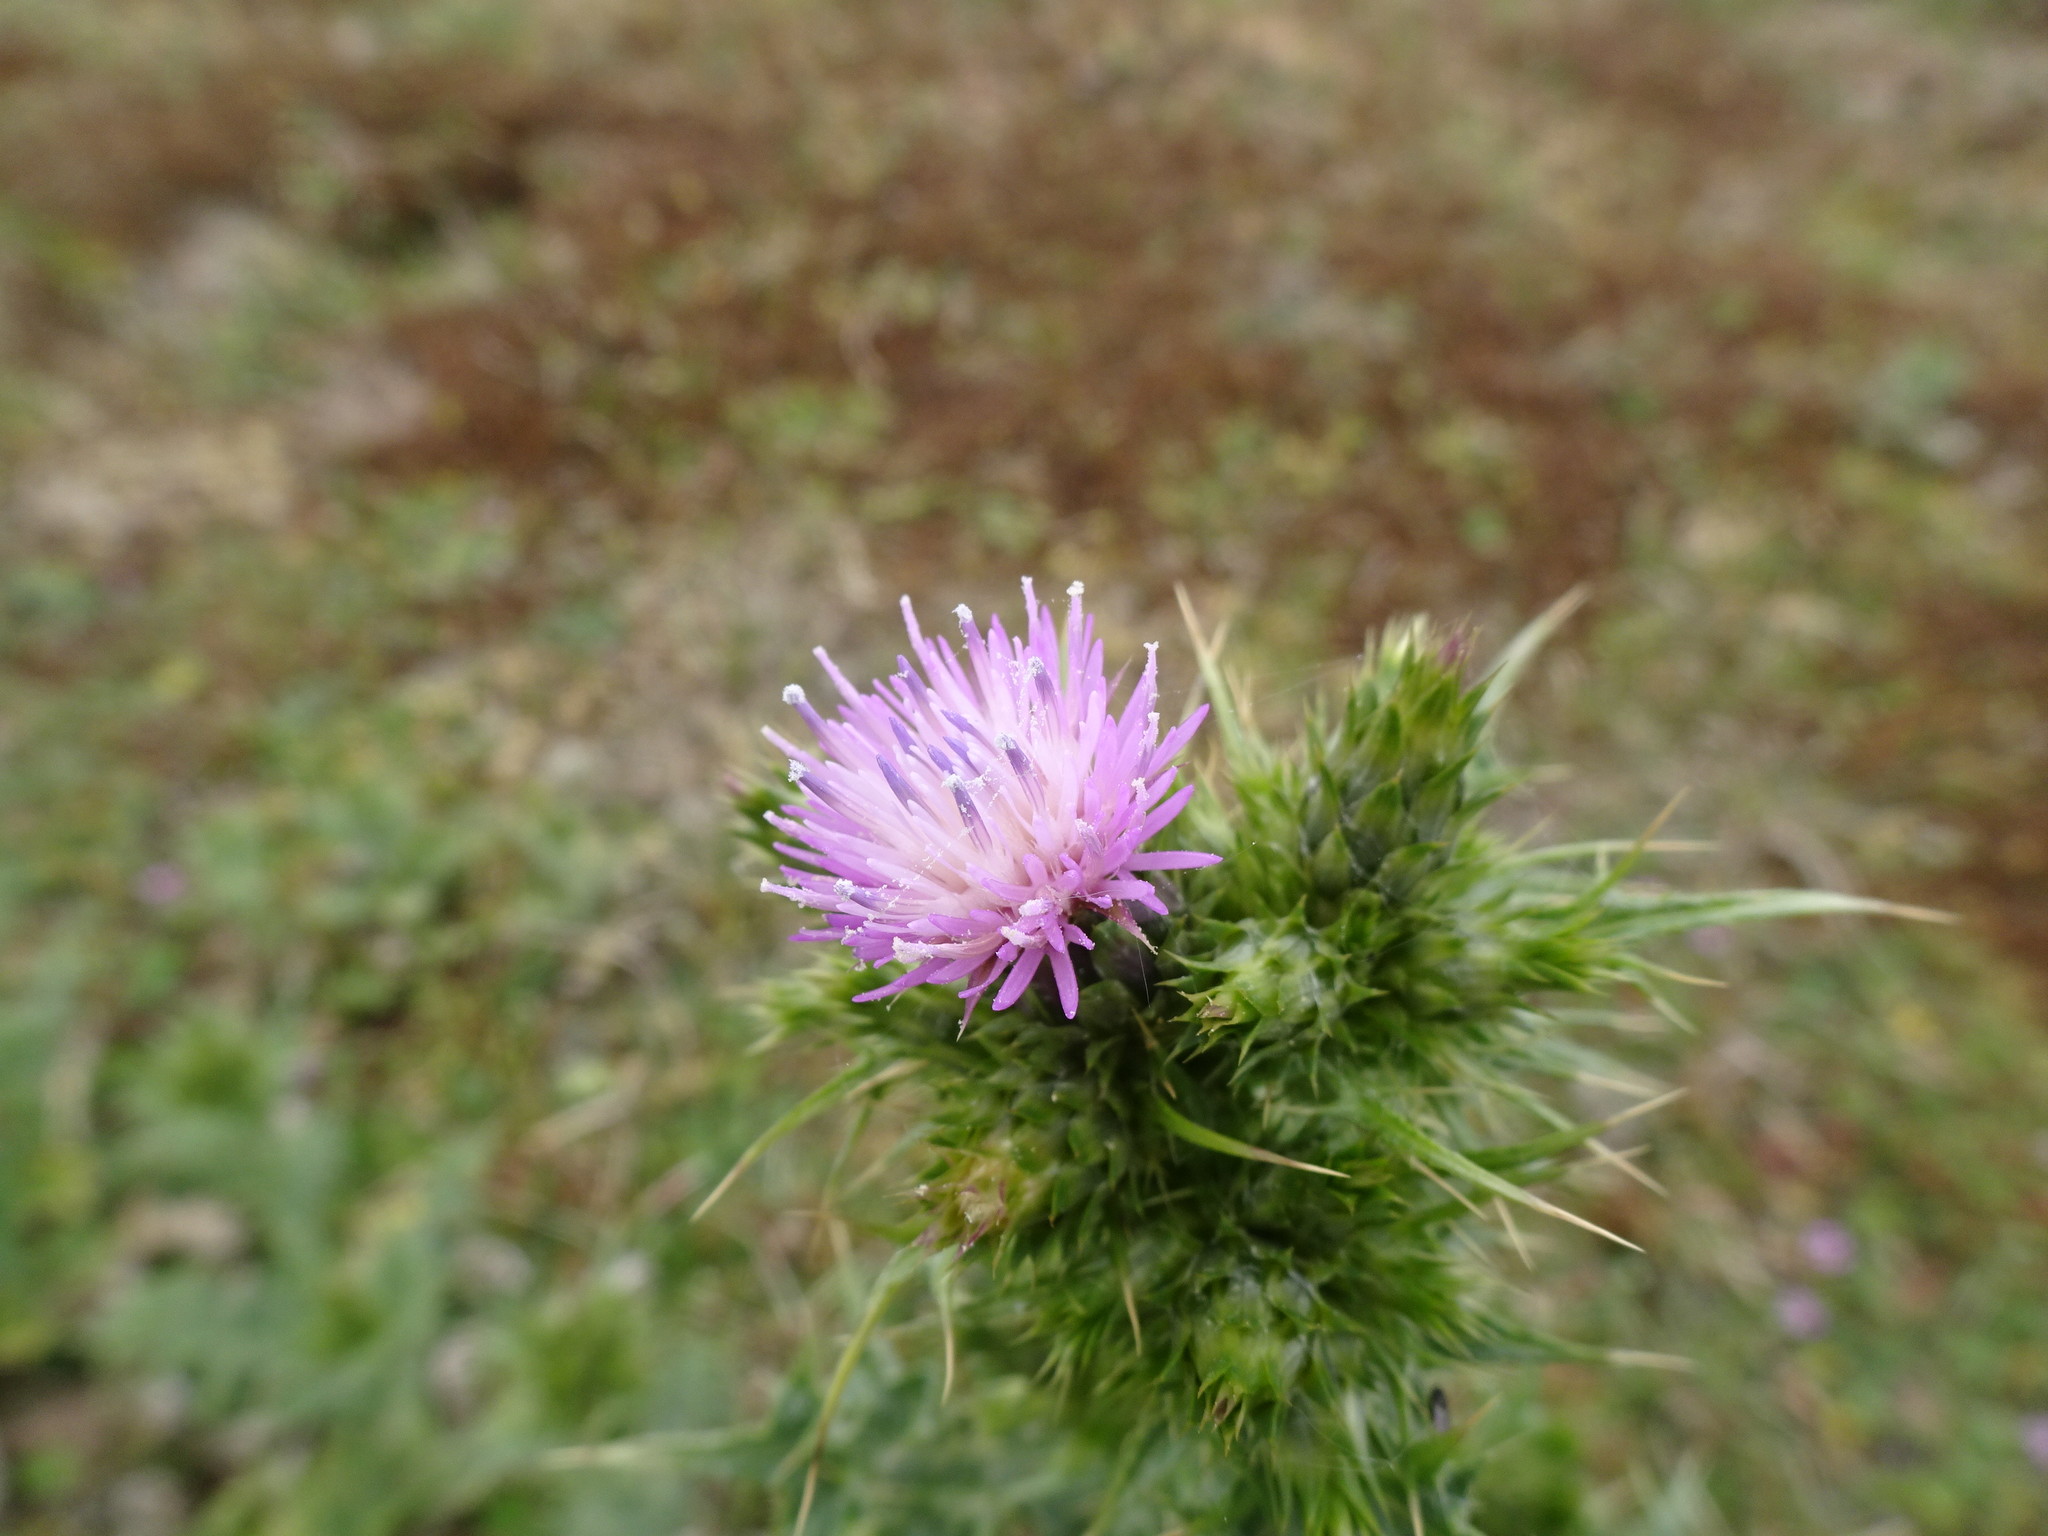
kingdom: Plantae
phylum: Tracheophyta
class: Magnoliopsida
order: Asterales
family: Asteraceae
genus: Carduus
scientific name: Carduus tenuiflorus
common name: Slender thistle
